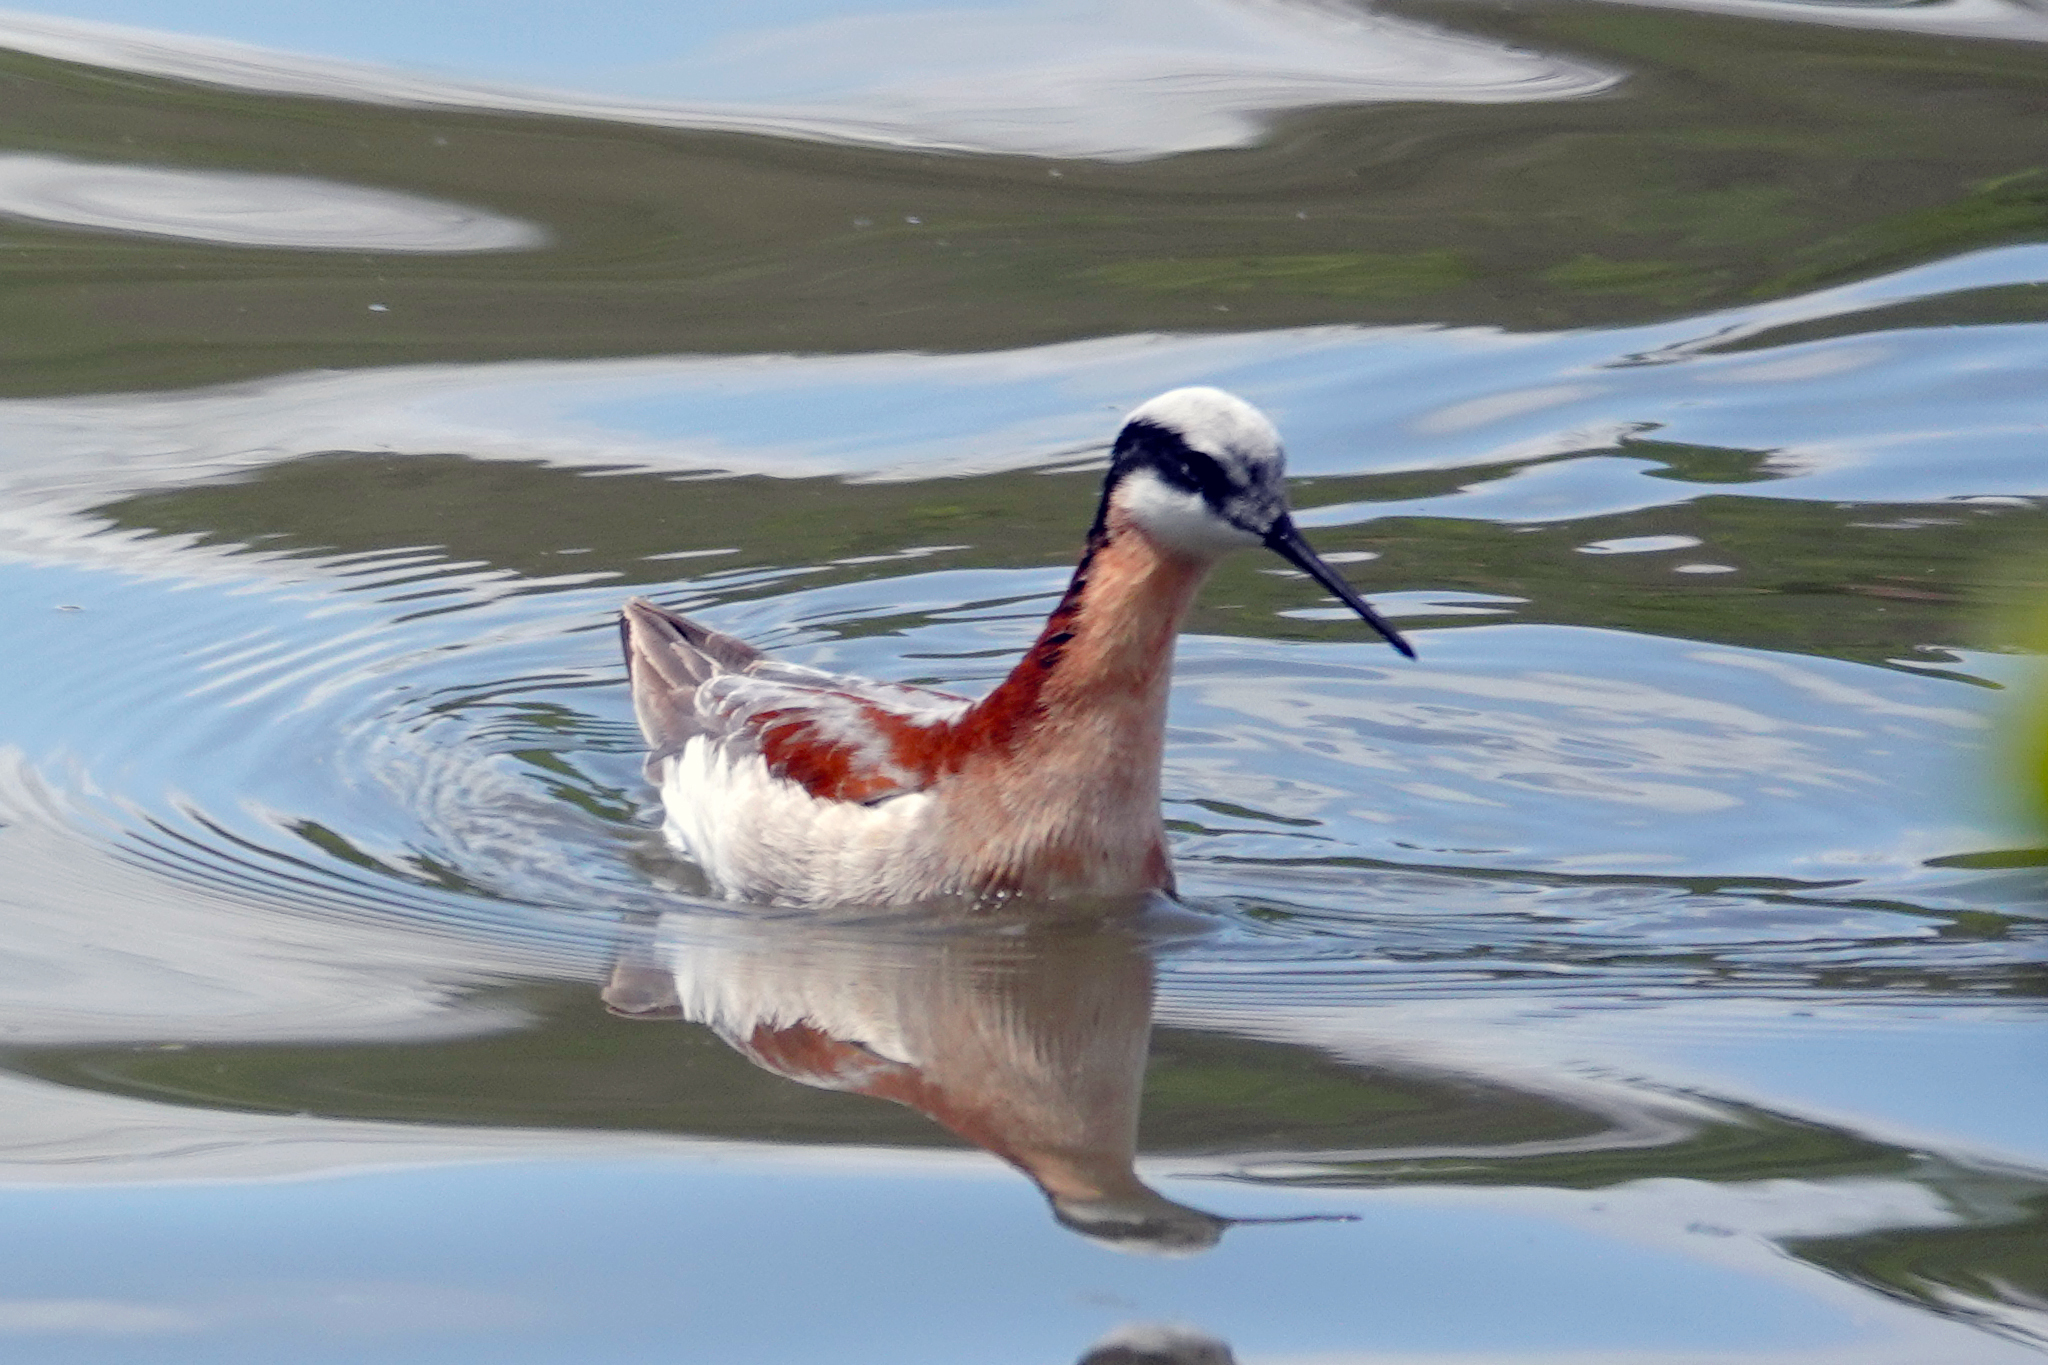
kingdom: Animalia
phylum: Chordata
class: Aves
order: Charadriiformes
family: Scolopacidae
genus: Phalaropus
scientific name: Phalaropus tricolor
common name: Wilson's phalarope
